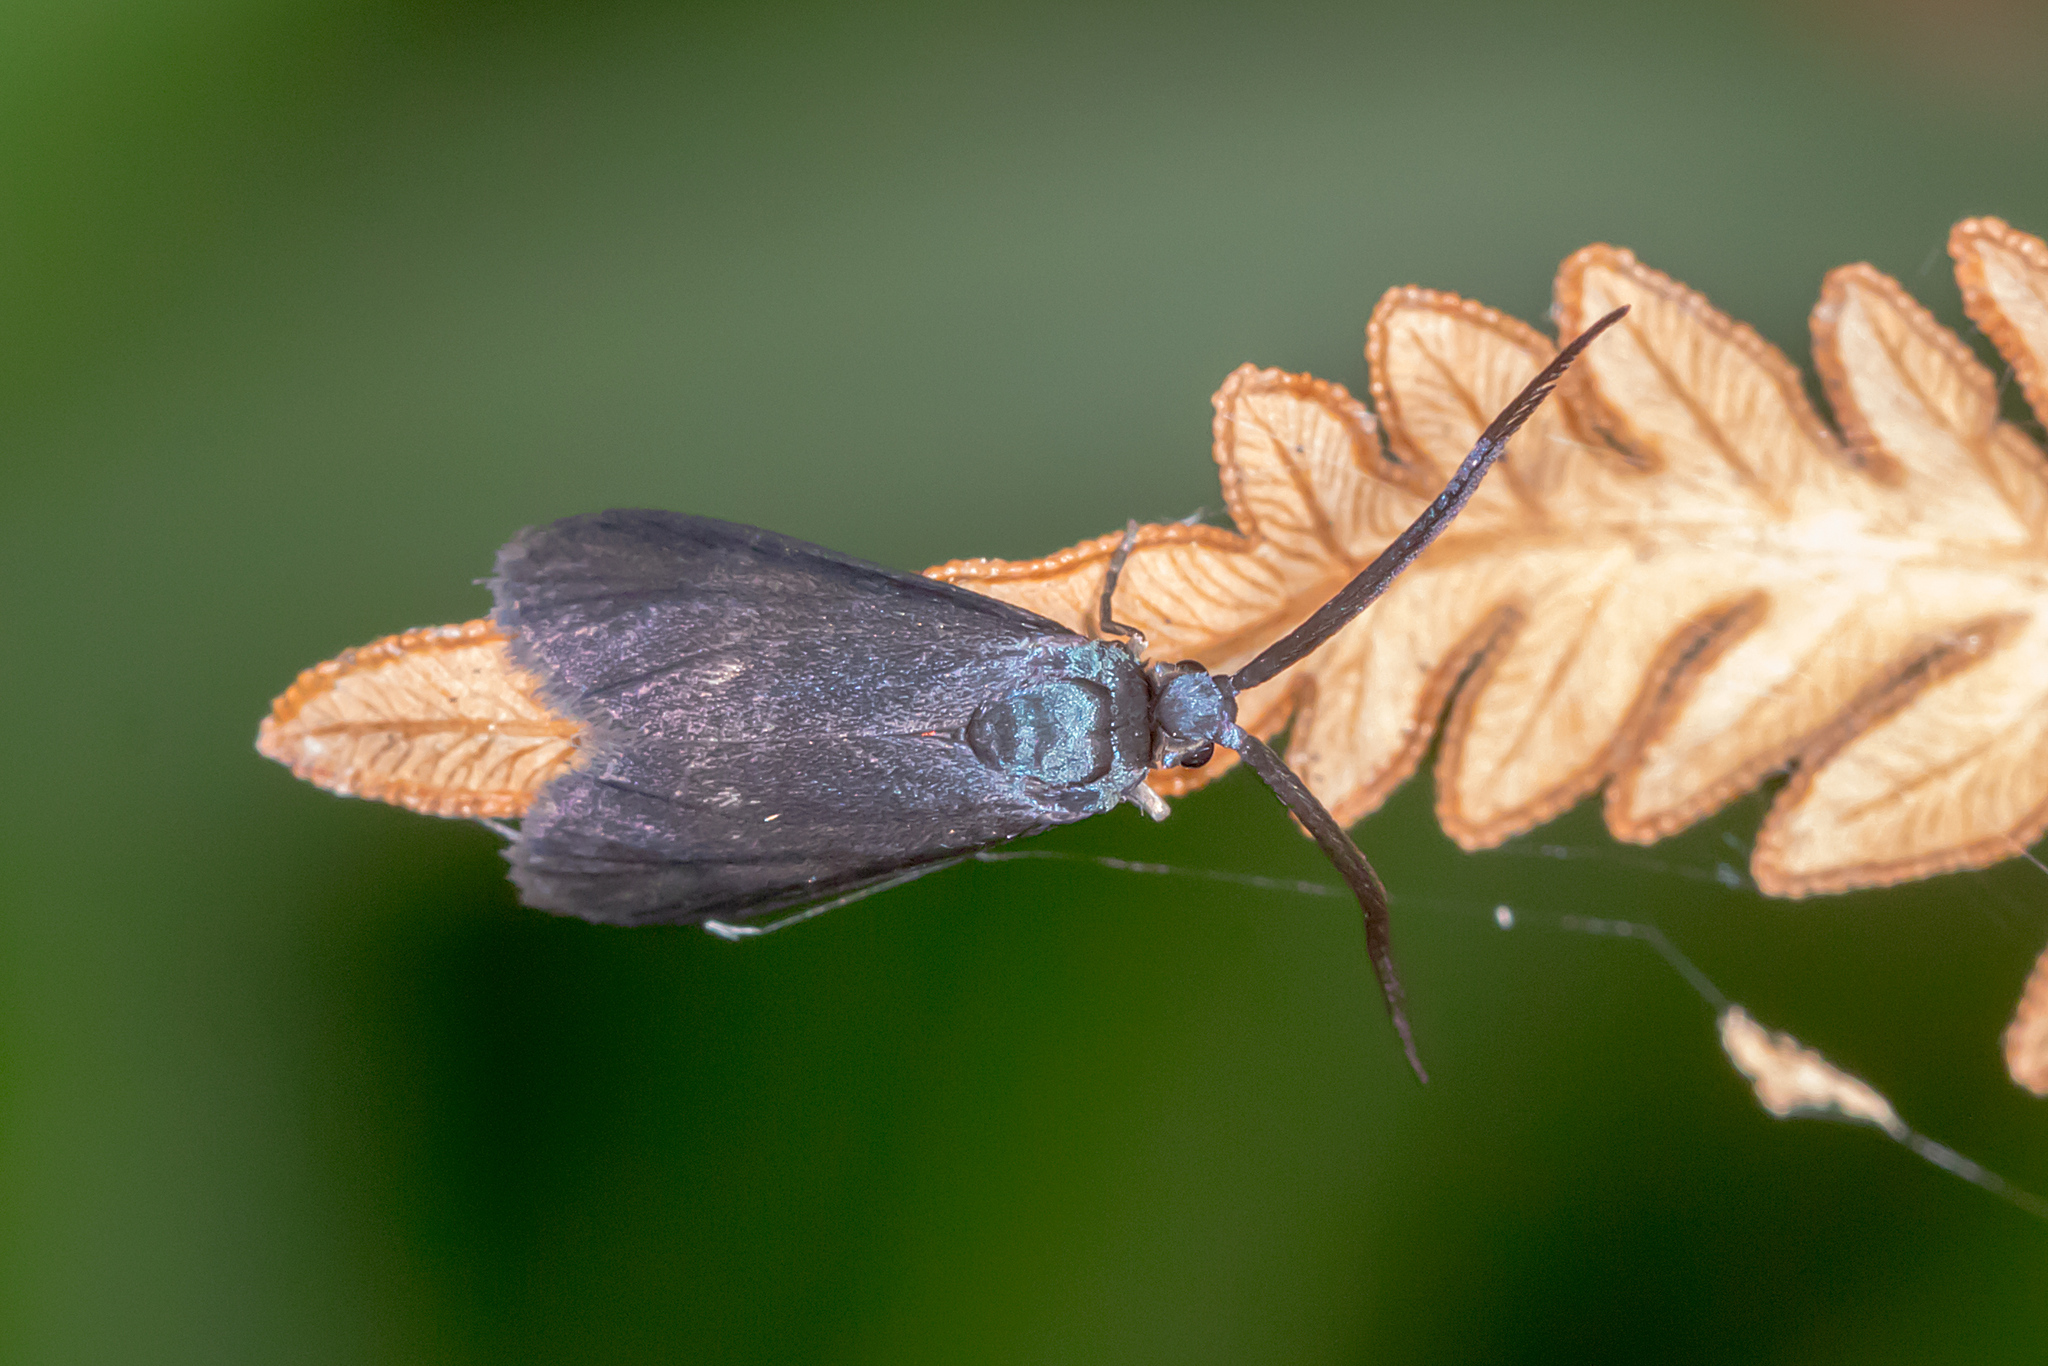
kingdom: Animalia
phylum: Arthropoda
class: Insecta
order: Lepidoptera
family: Zygaenidae
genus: Myrtartona
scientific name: Myrtartona coronias
